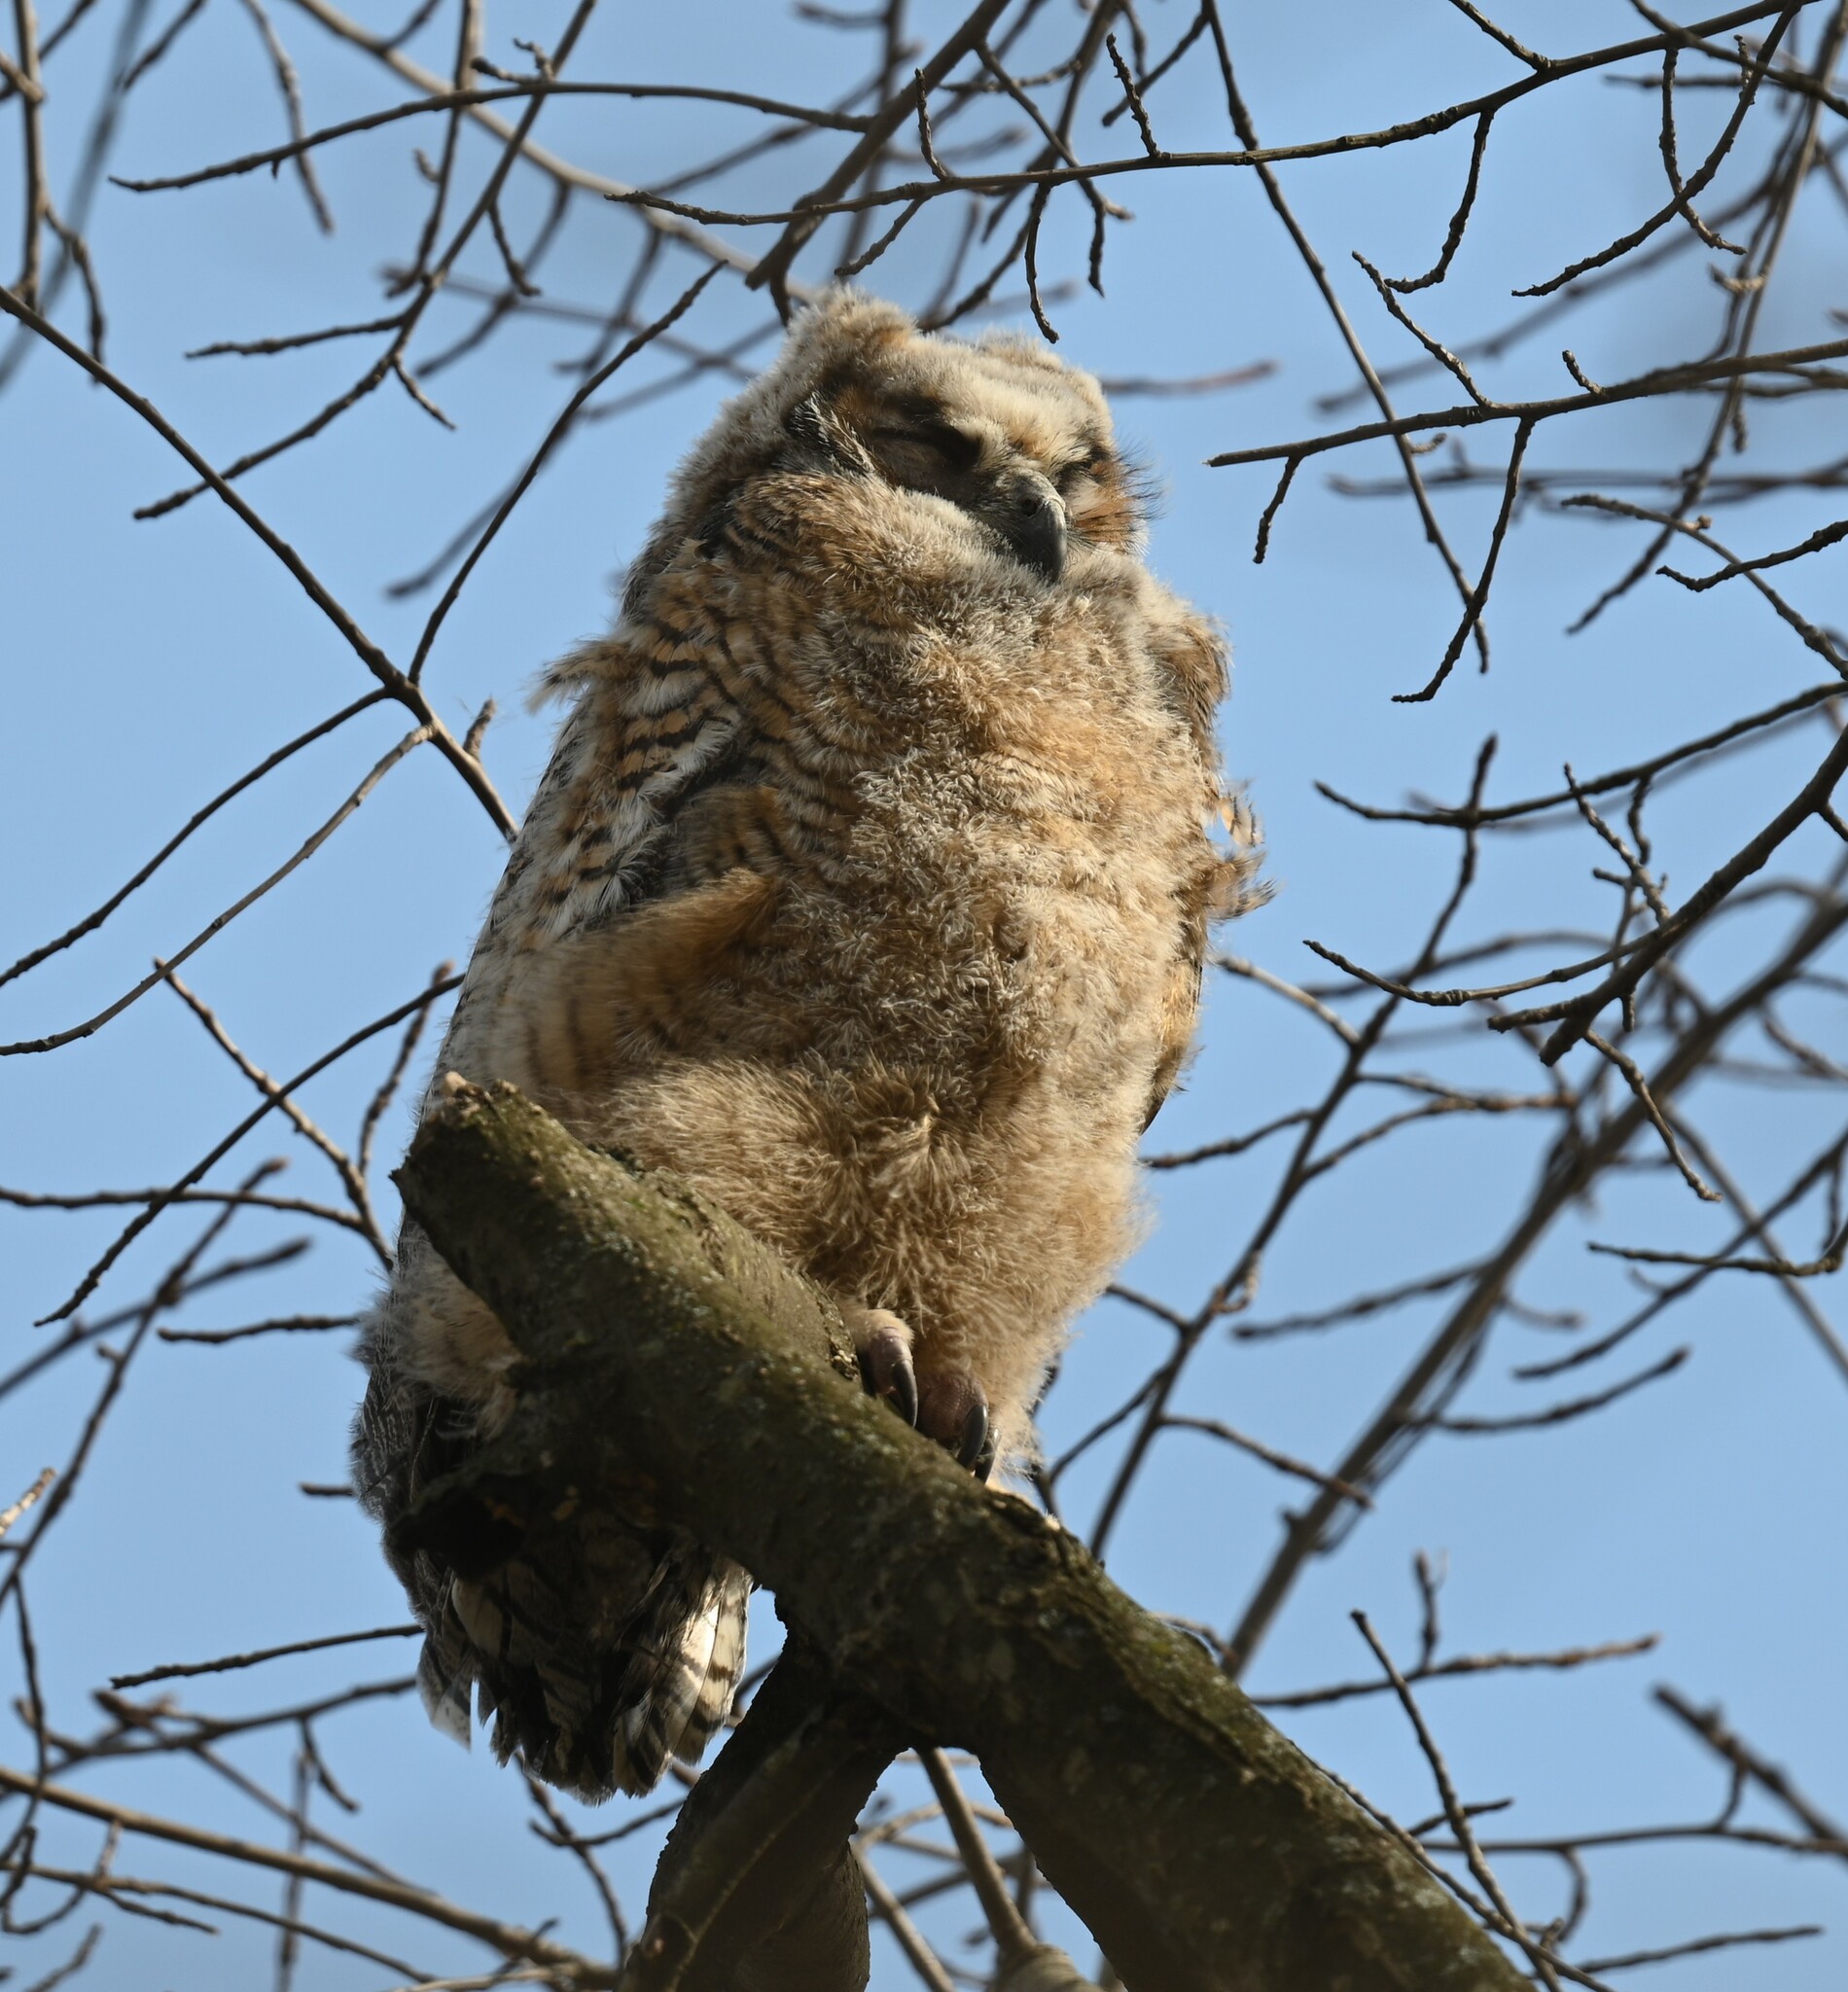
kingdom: Animalia
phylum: Chordata
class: Aves
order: Strigiformes
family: Strigidae
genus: Bubo
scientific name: Bubo virginianus
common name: Great horned owl
